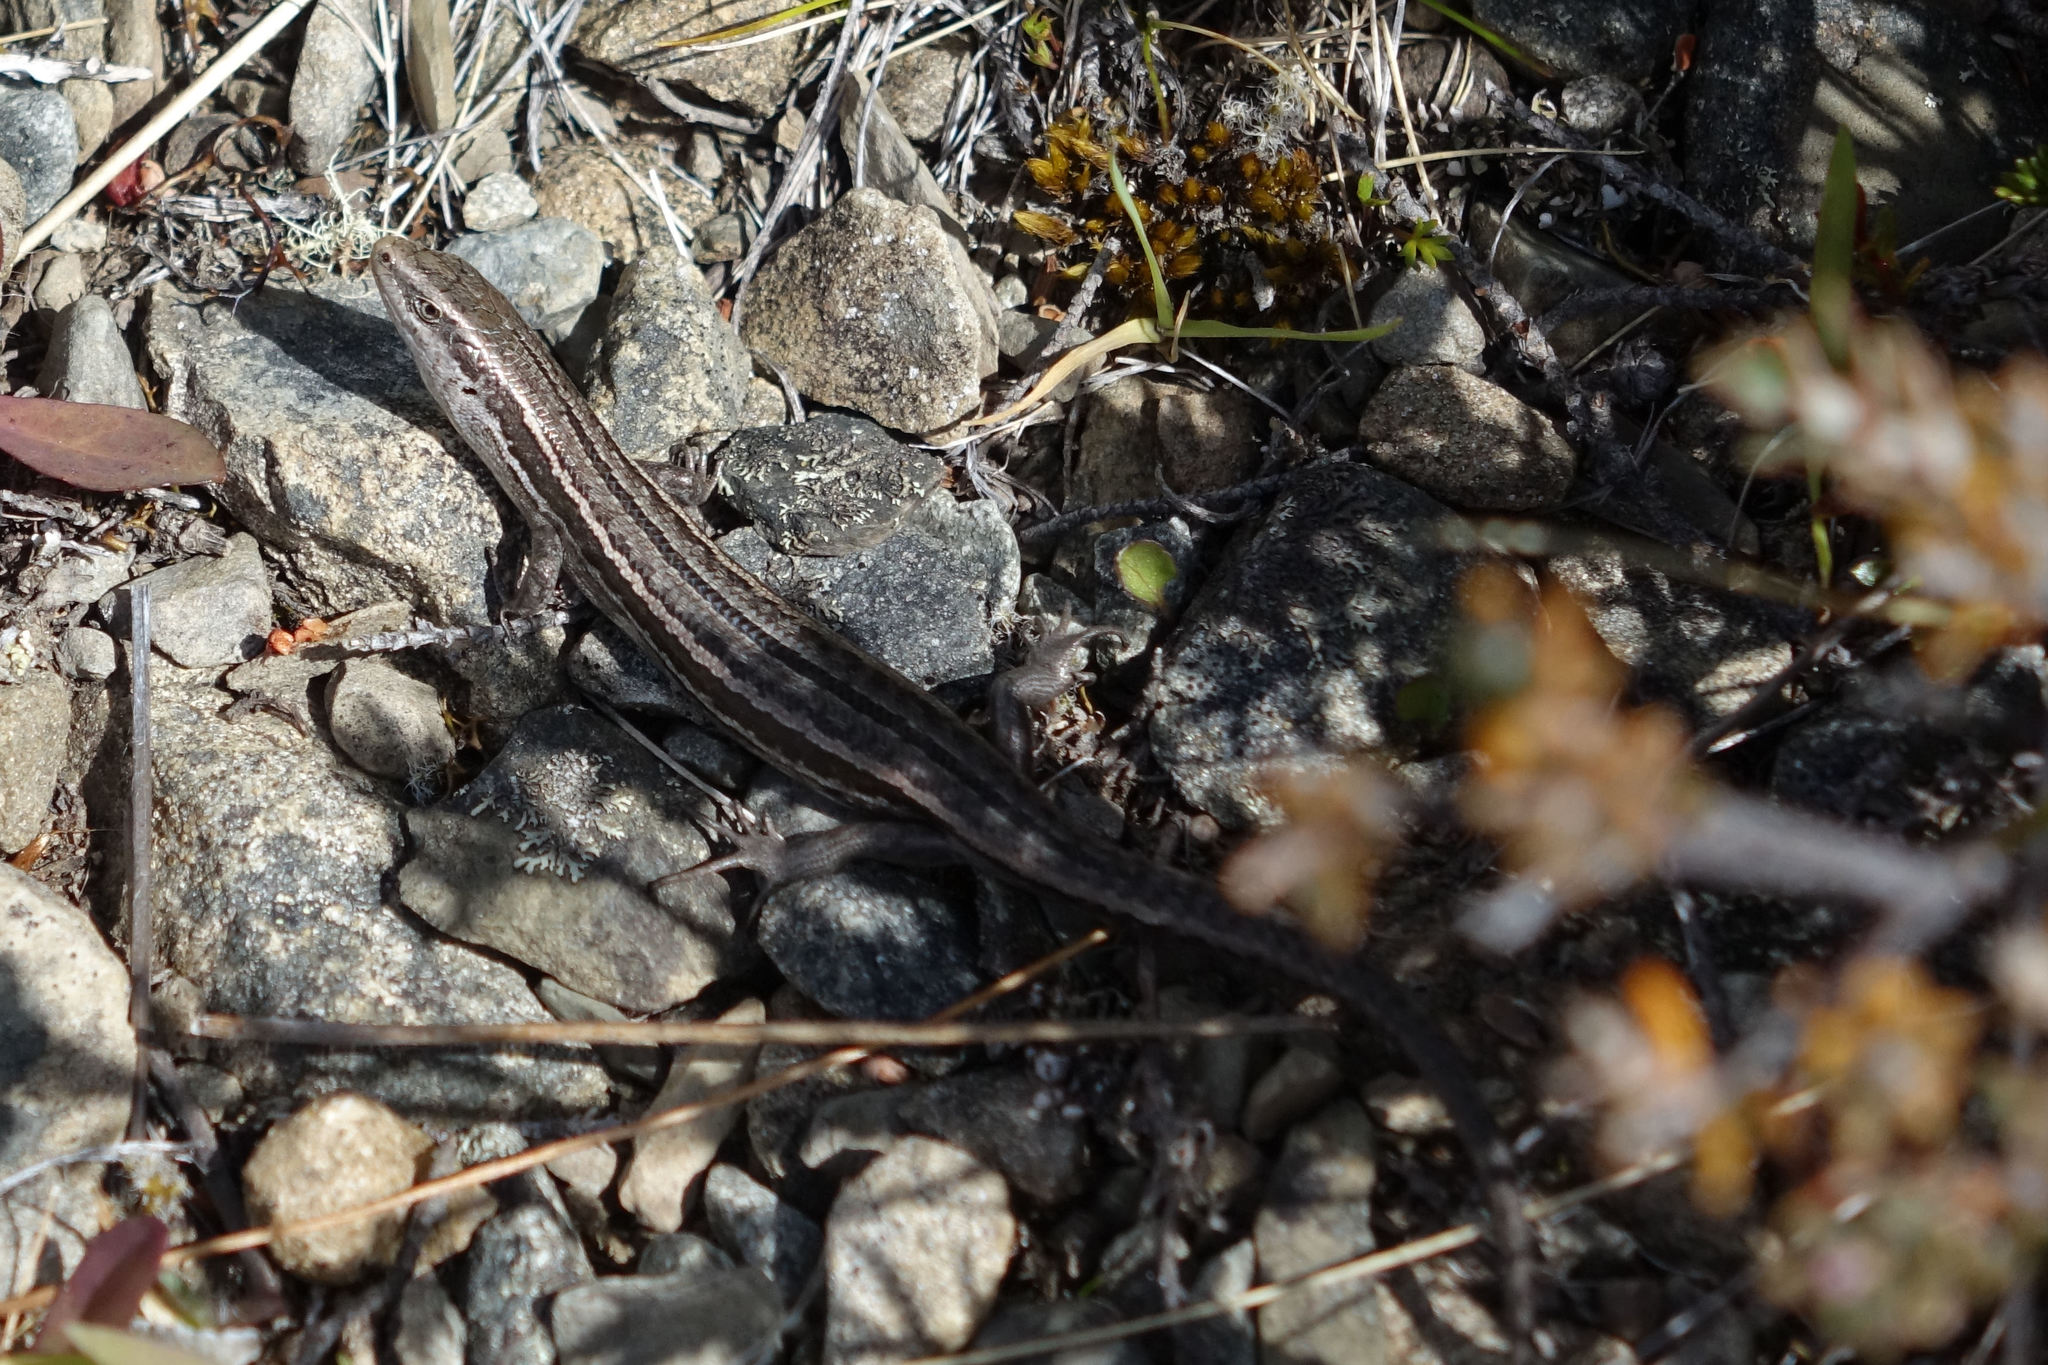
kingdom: Animalia
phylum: Chordata
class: Squamata
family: Scincidae
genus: Oligosoma
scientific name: Oligosoma maccanni
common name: Mccann’s skink
